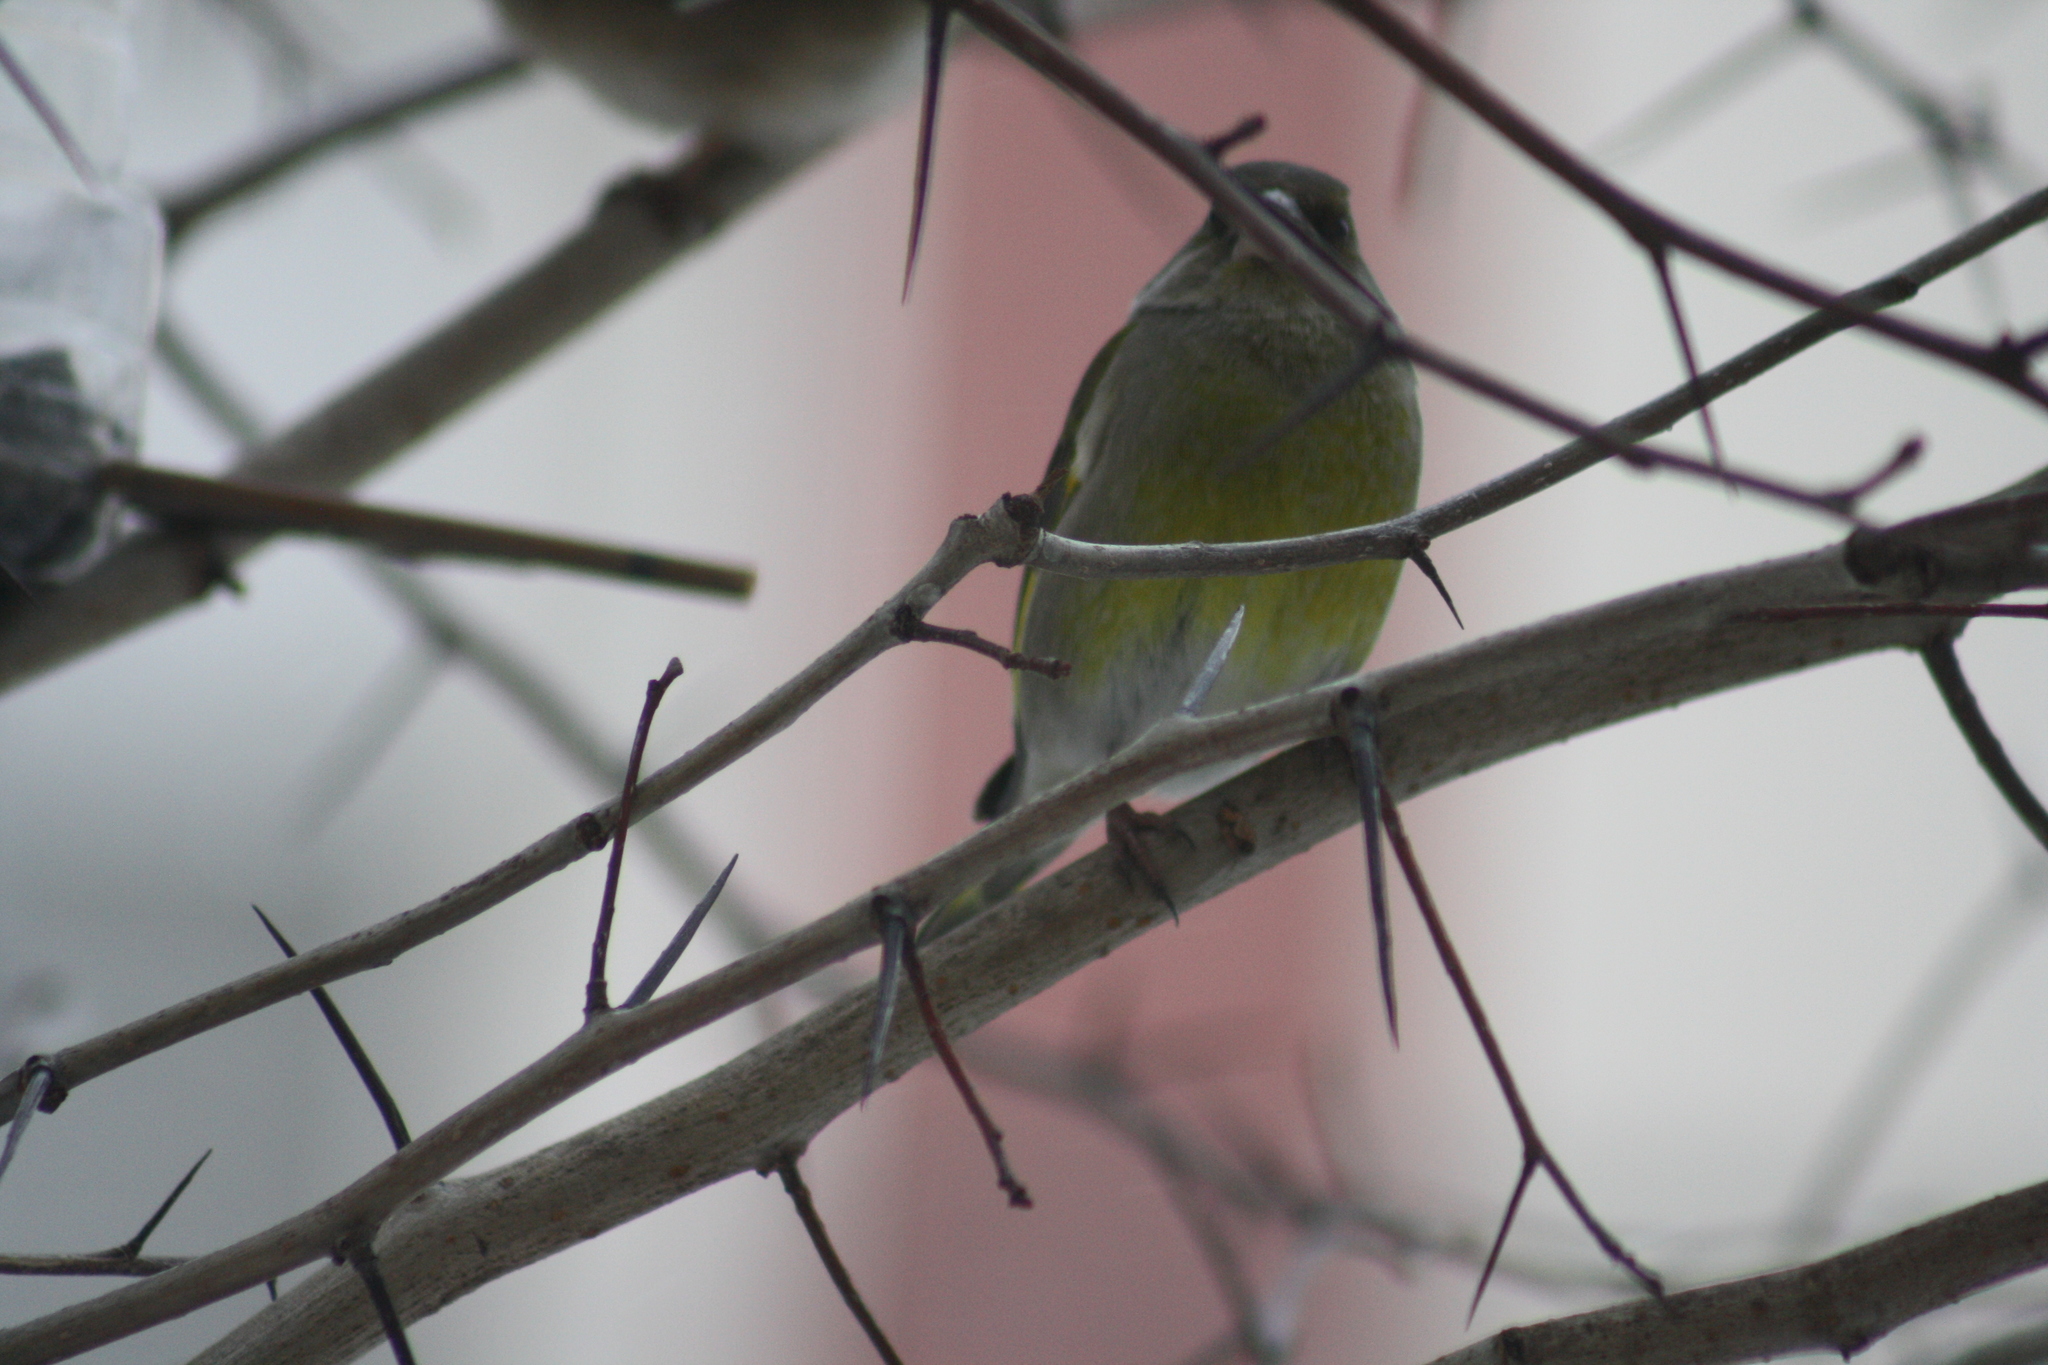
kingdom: Plantae
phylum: Tracheophyta
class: Liliopsida
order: Poales
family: Poaceae
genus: Chloris
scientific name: Chloris chloris
